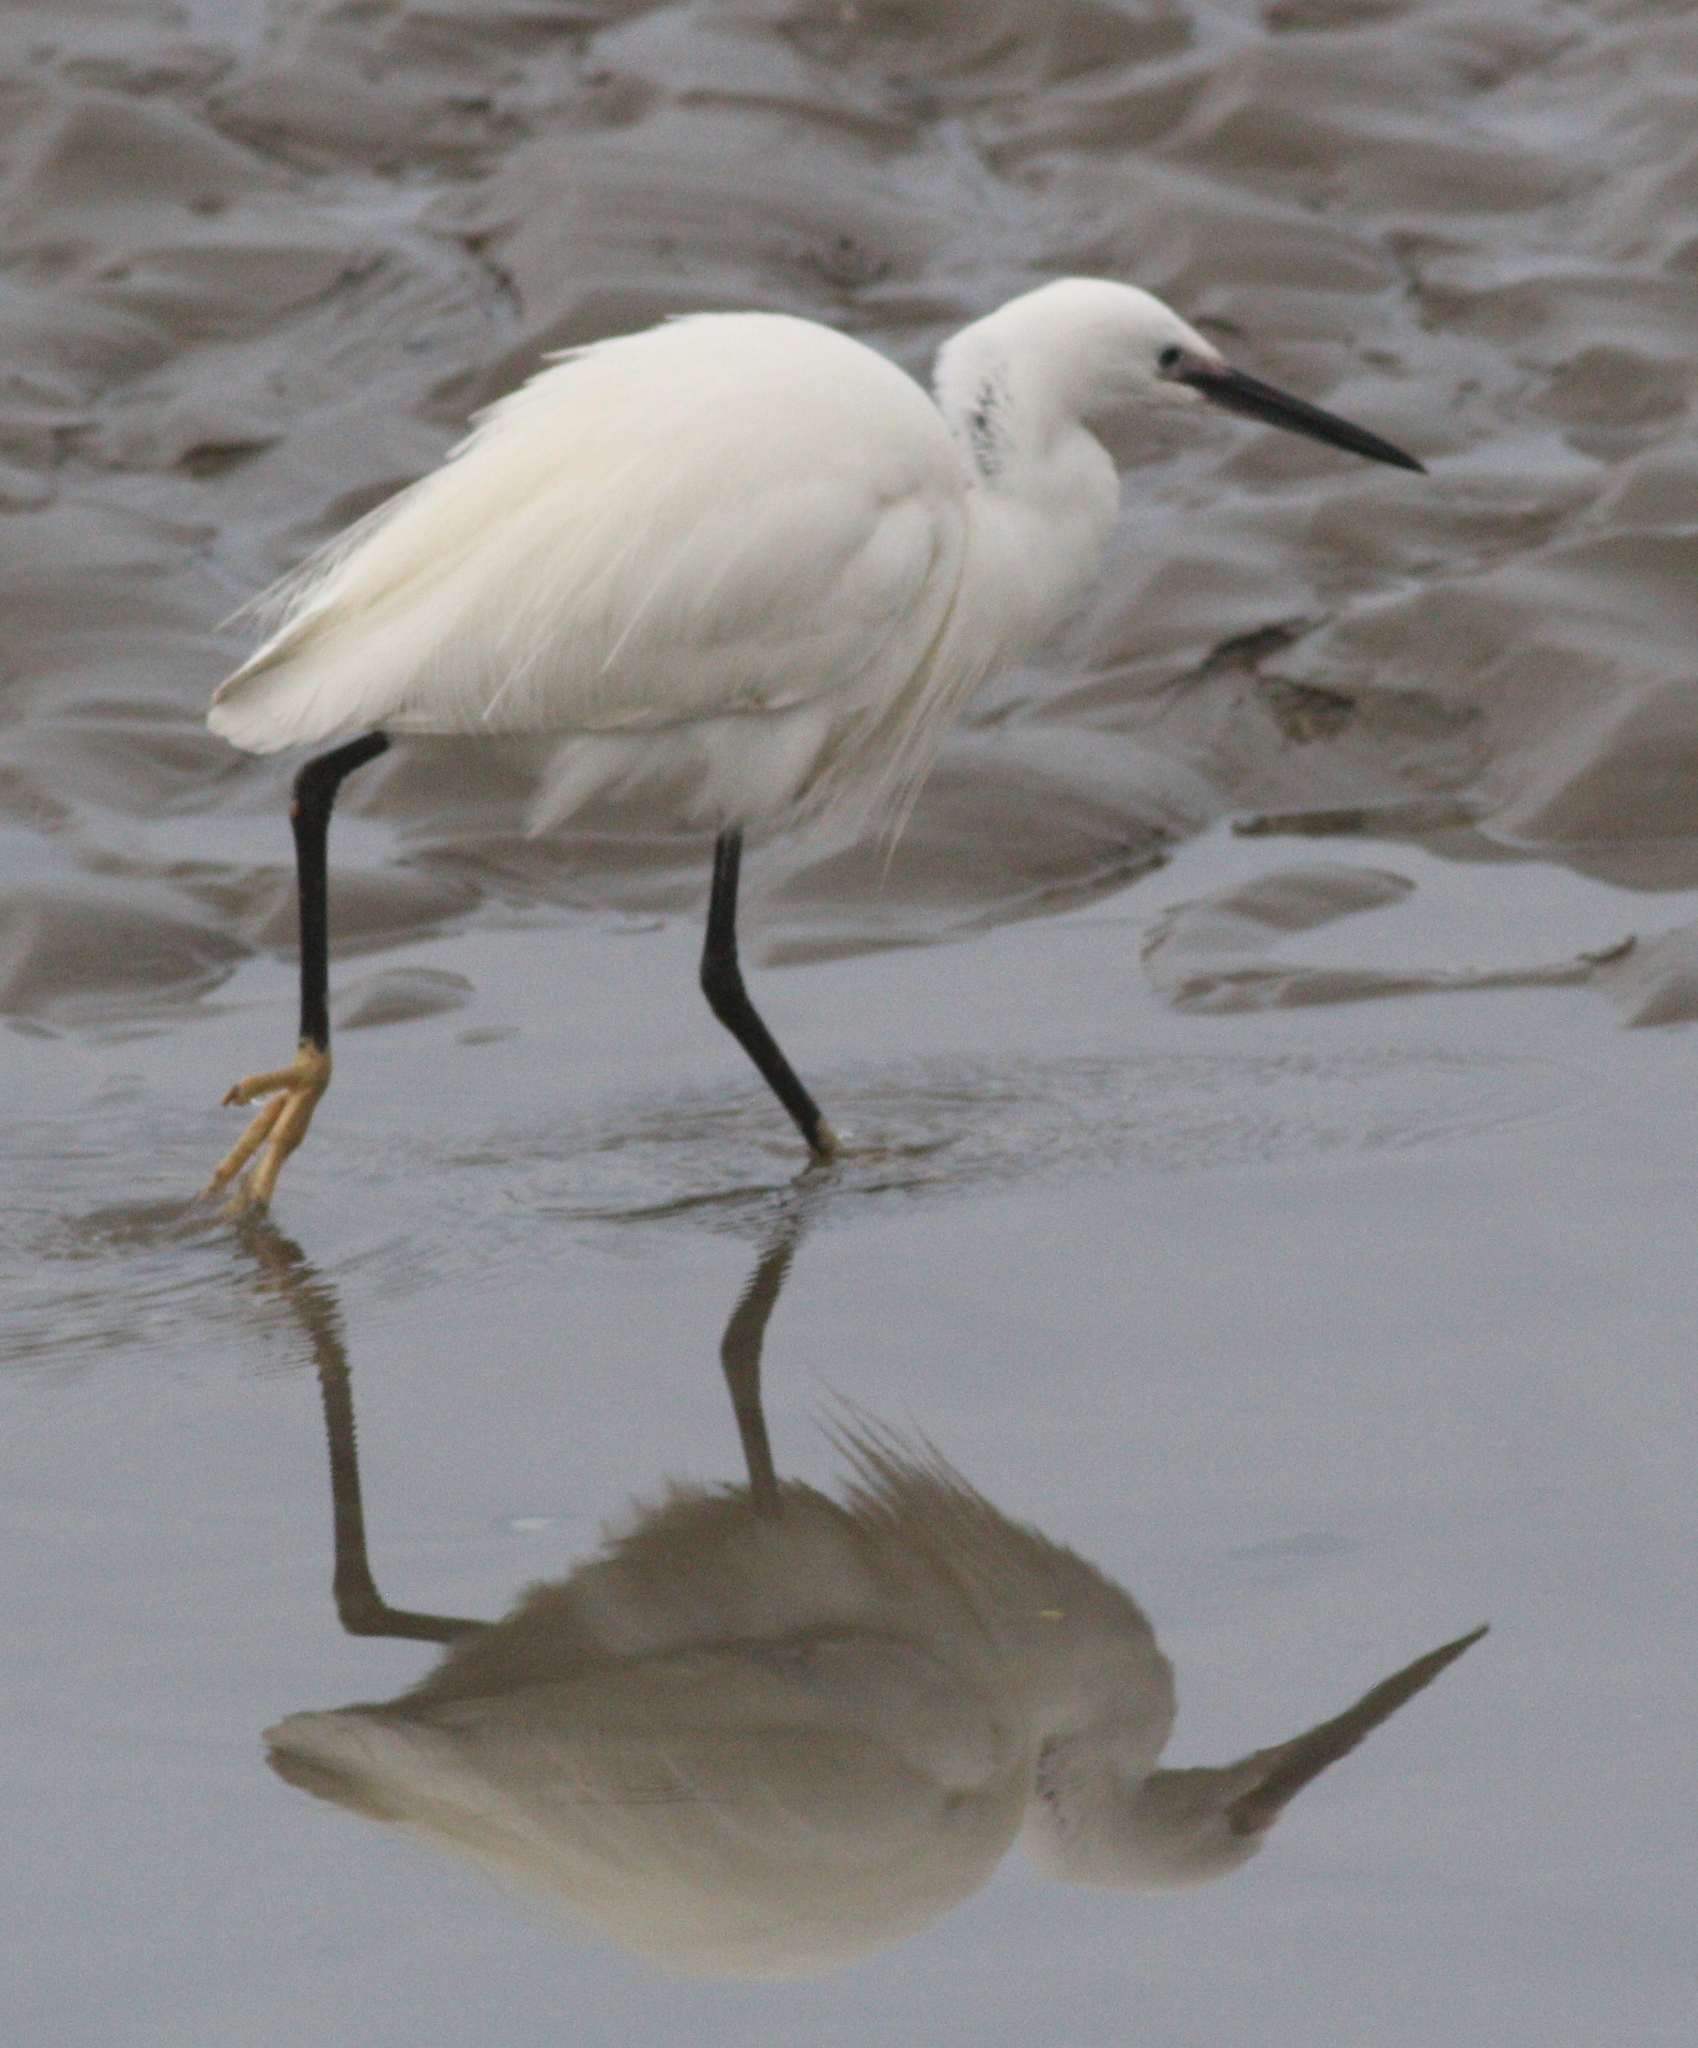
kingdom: Animalia
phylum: Chordata
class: Aves
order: Pelecaniformes
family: Ardeidae
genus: Egretta
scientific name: Egretta garzetta
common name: Little egret
